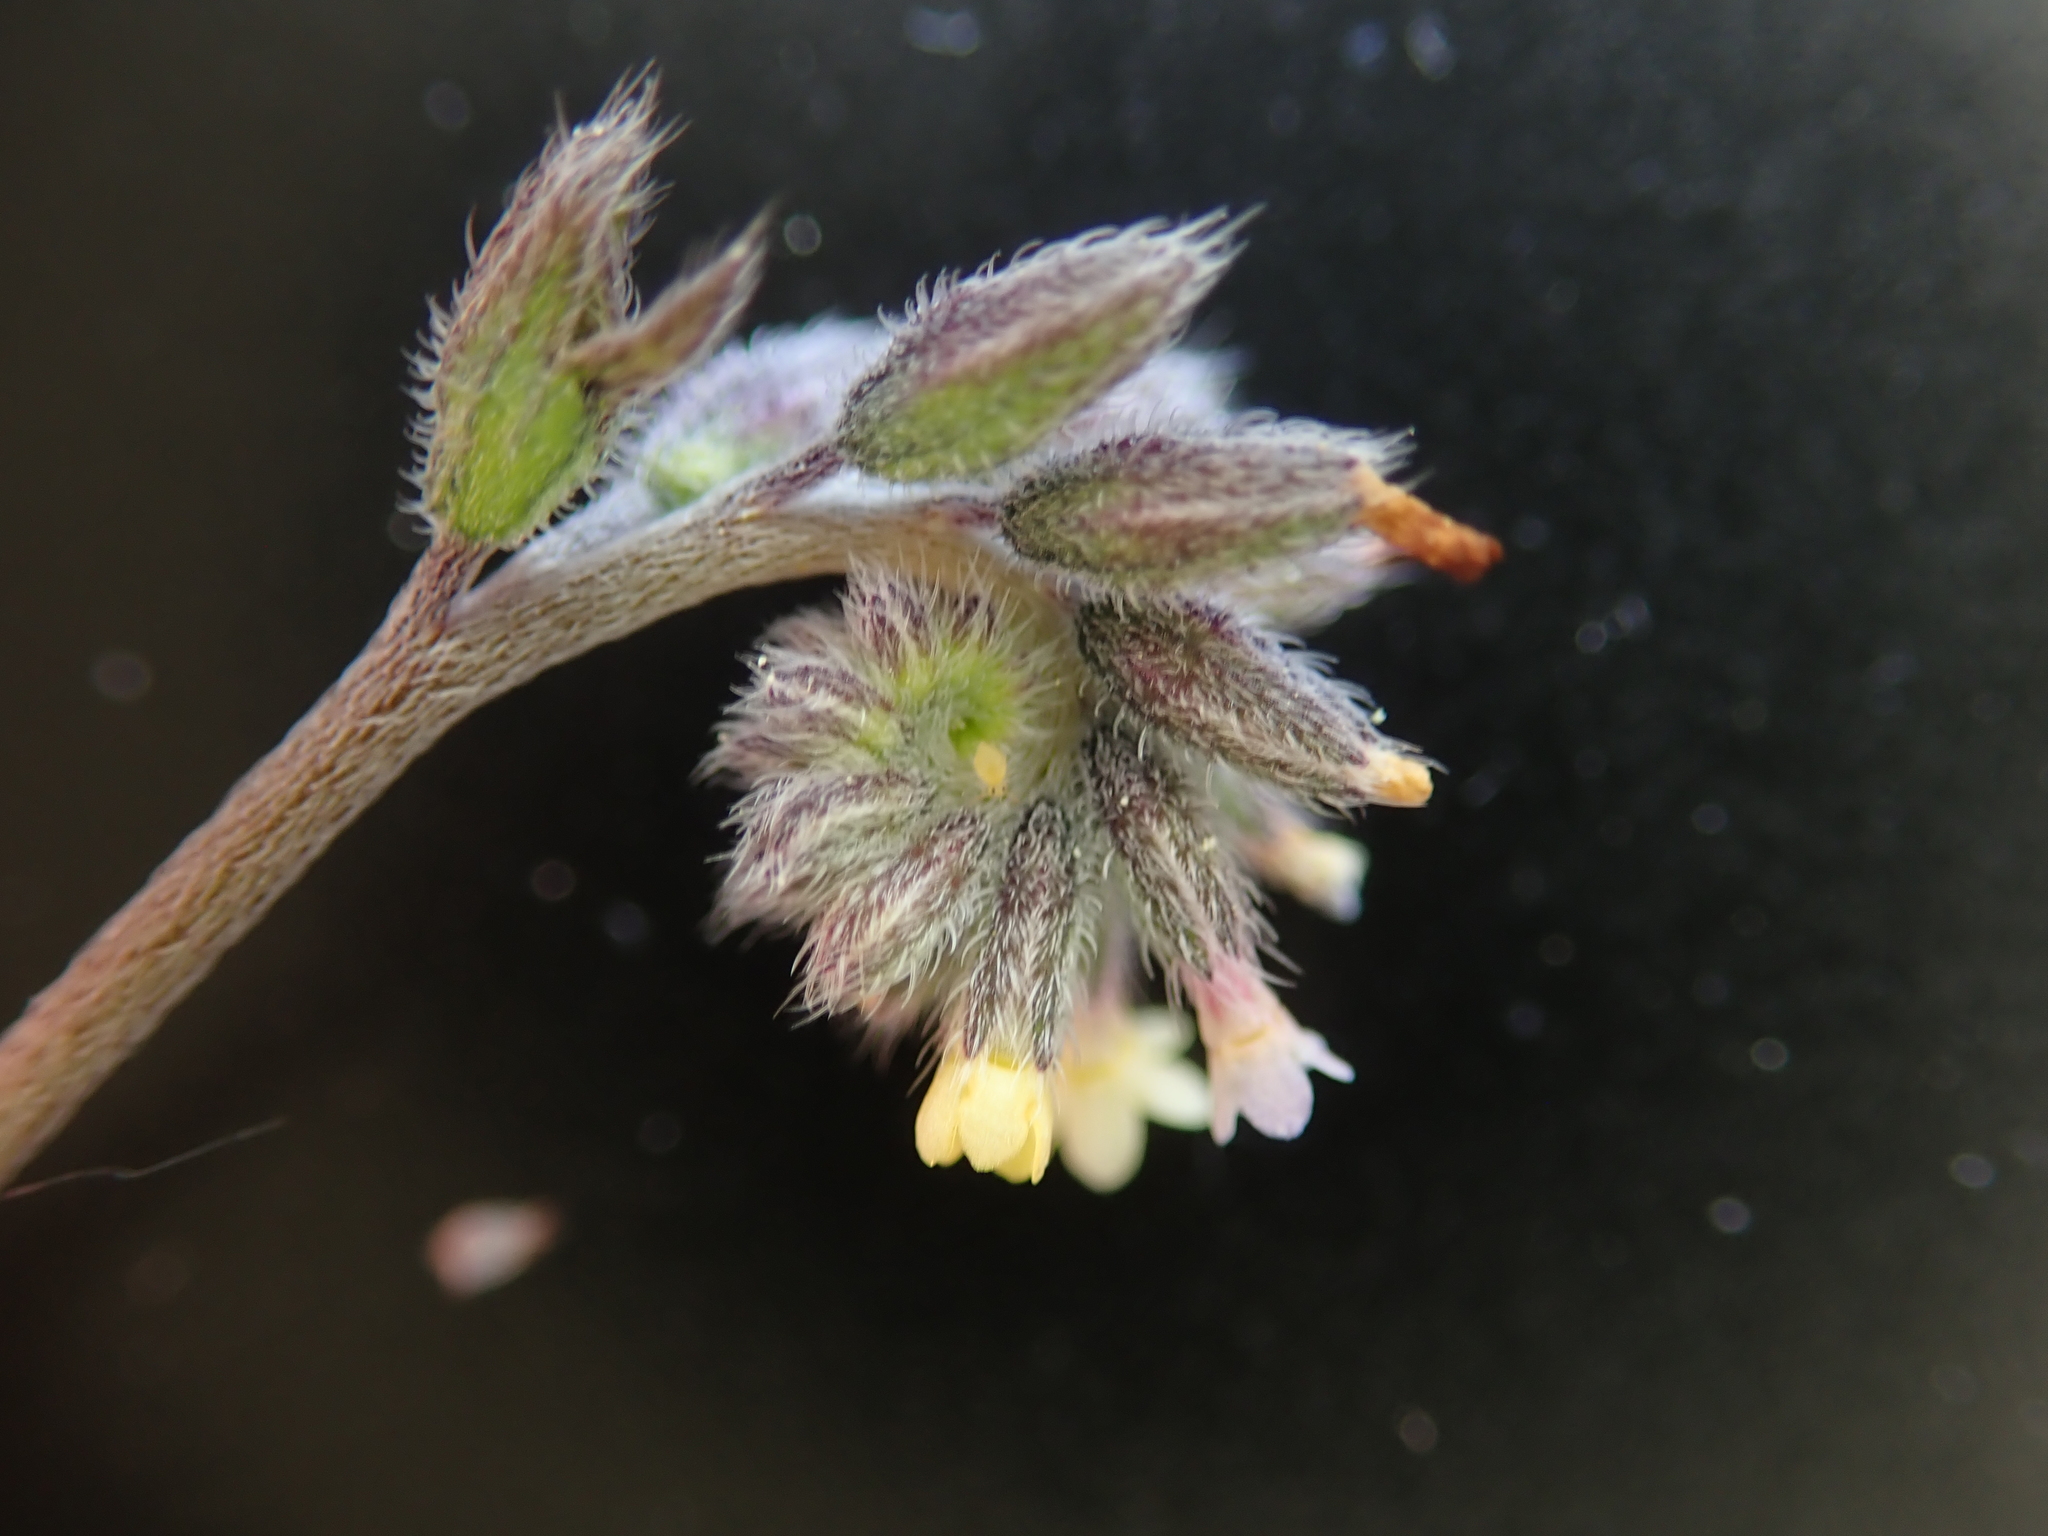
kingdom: Plantae
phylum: Tracheophyta
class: Magnoliopsida
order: Boraginales
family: Boraginaceae
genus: Myosotis
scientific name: Myosotis discolor
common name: Changing forget-me-not
